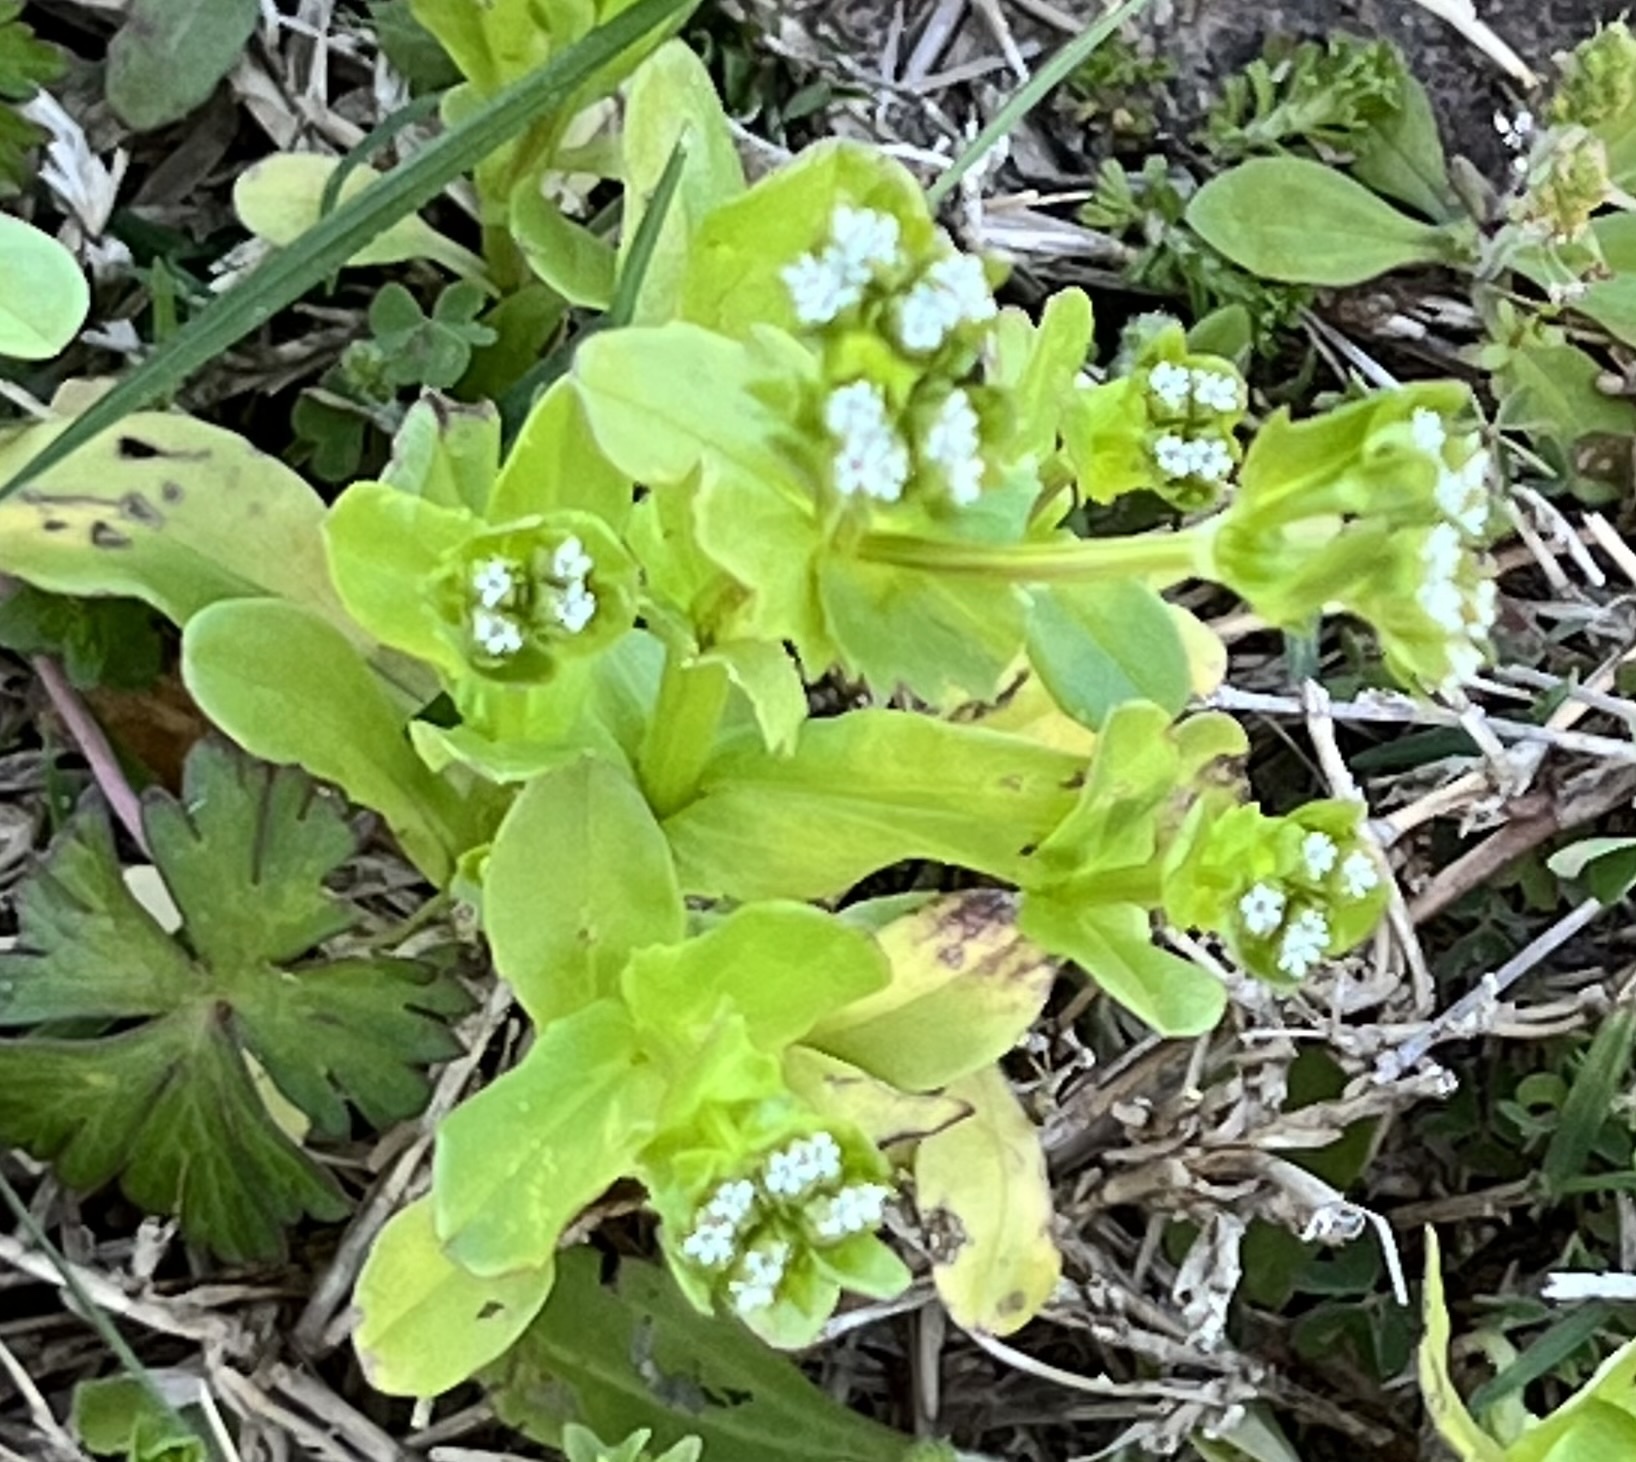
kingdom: Plantae
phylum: Tracheophyta
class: Magnoliopsida
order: Dipsacales
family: Caprifoliaceae
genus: Valerianella
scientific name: Valerianella radiata
